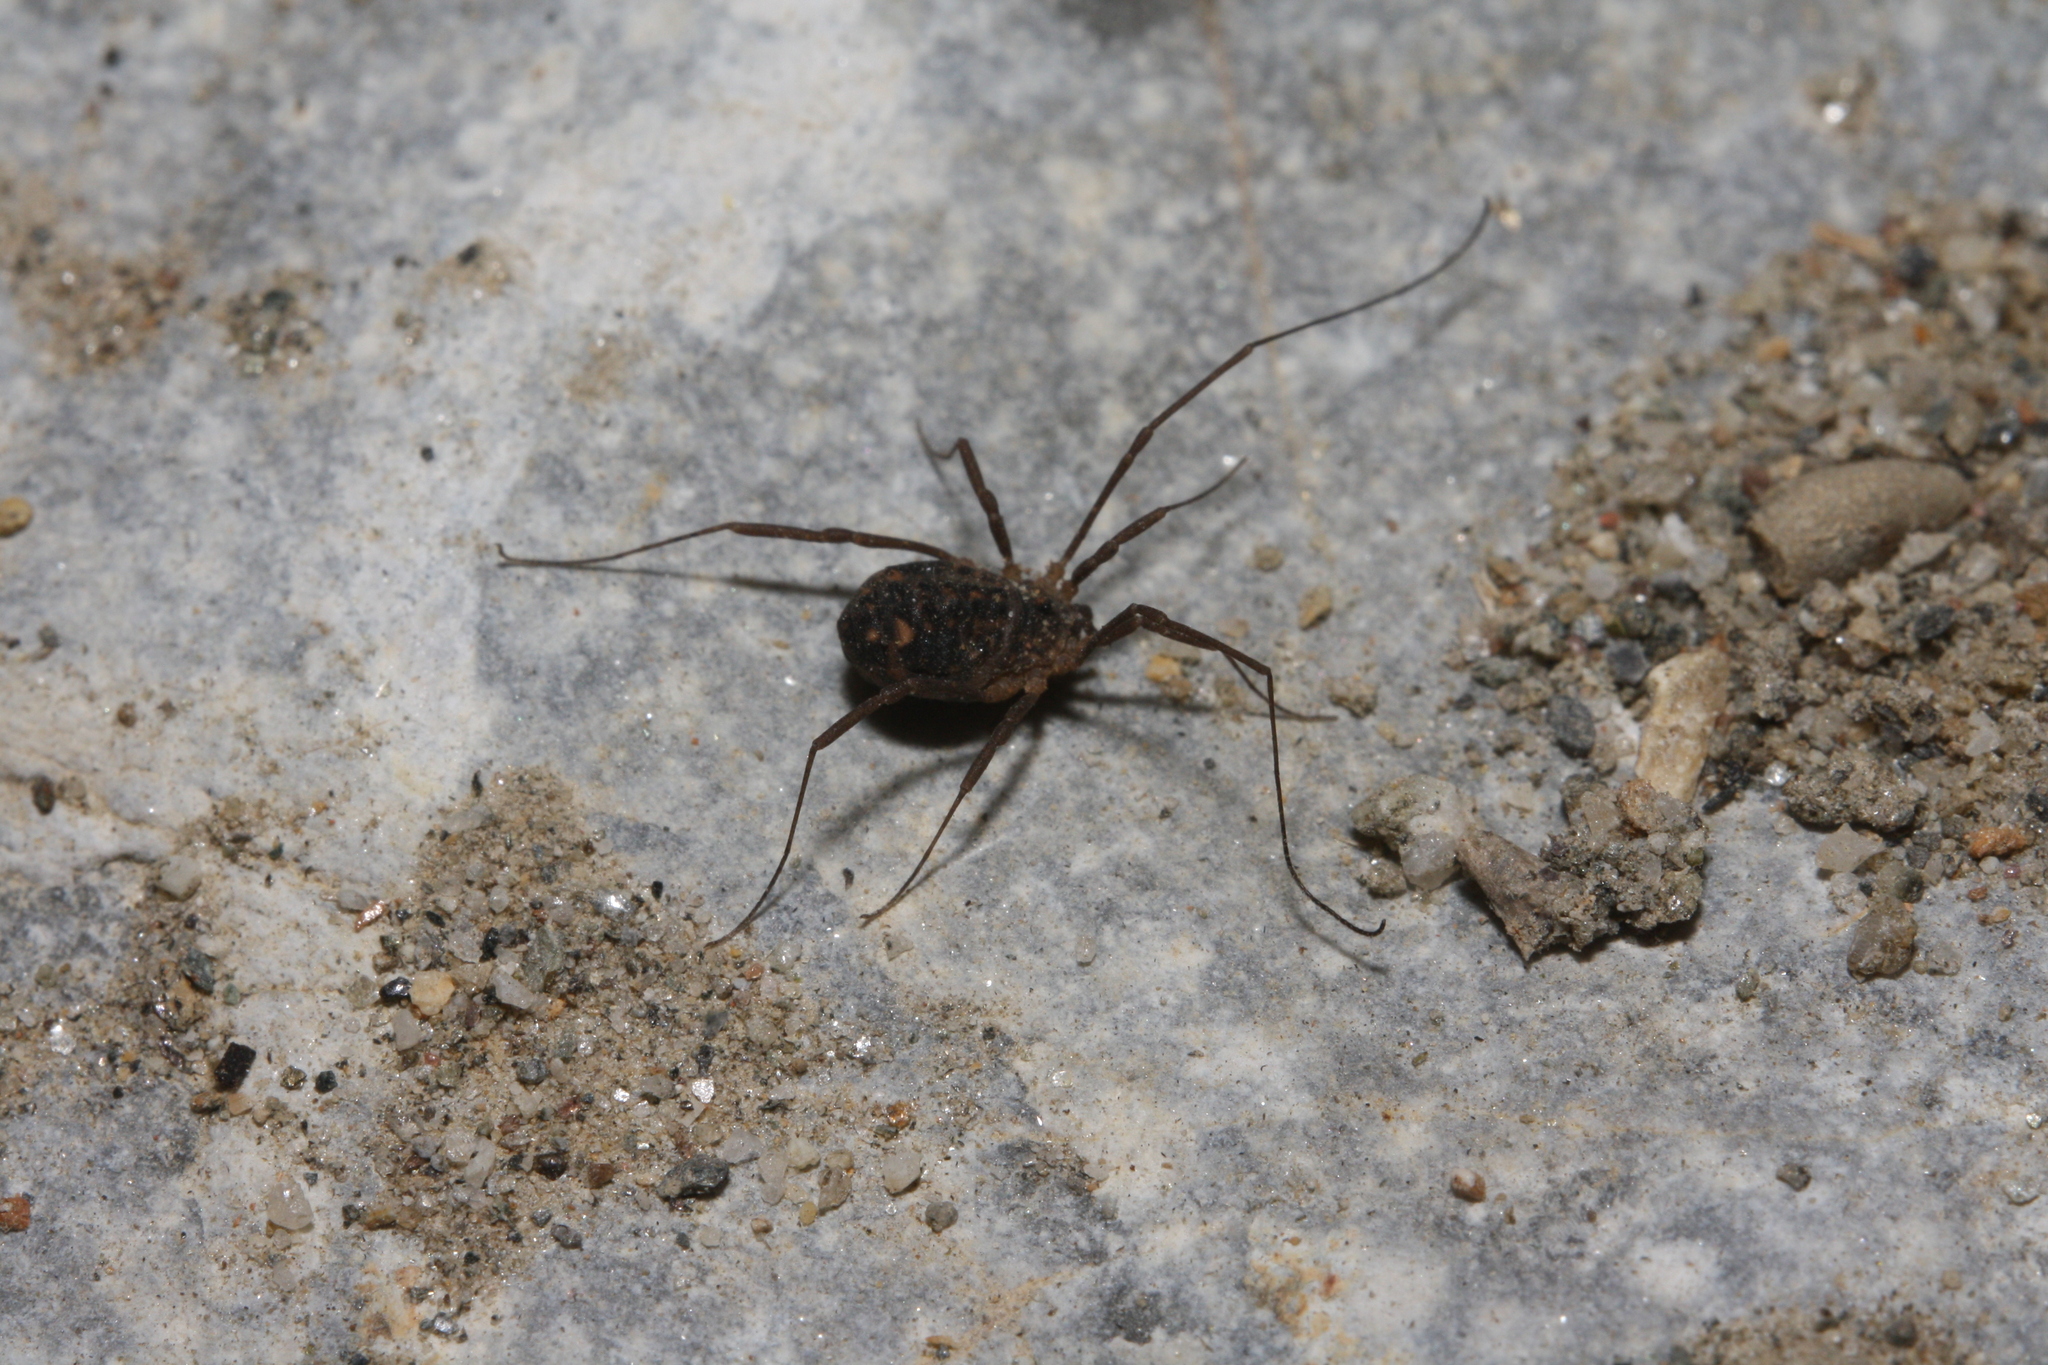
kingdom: Animalia
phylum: Arthropoda
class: Arachnida
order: Opiliones
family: Sclerosomatidae
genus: Astrobunus
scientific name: Astrobunus laevipes
